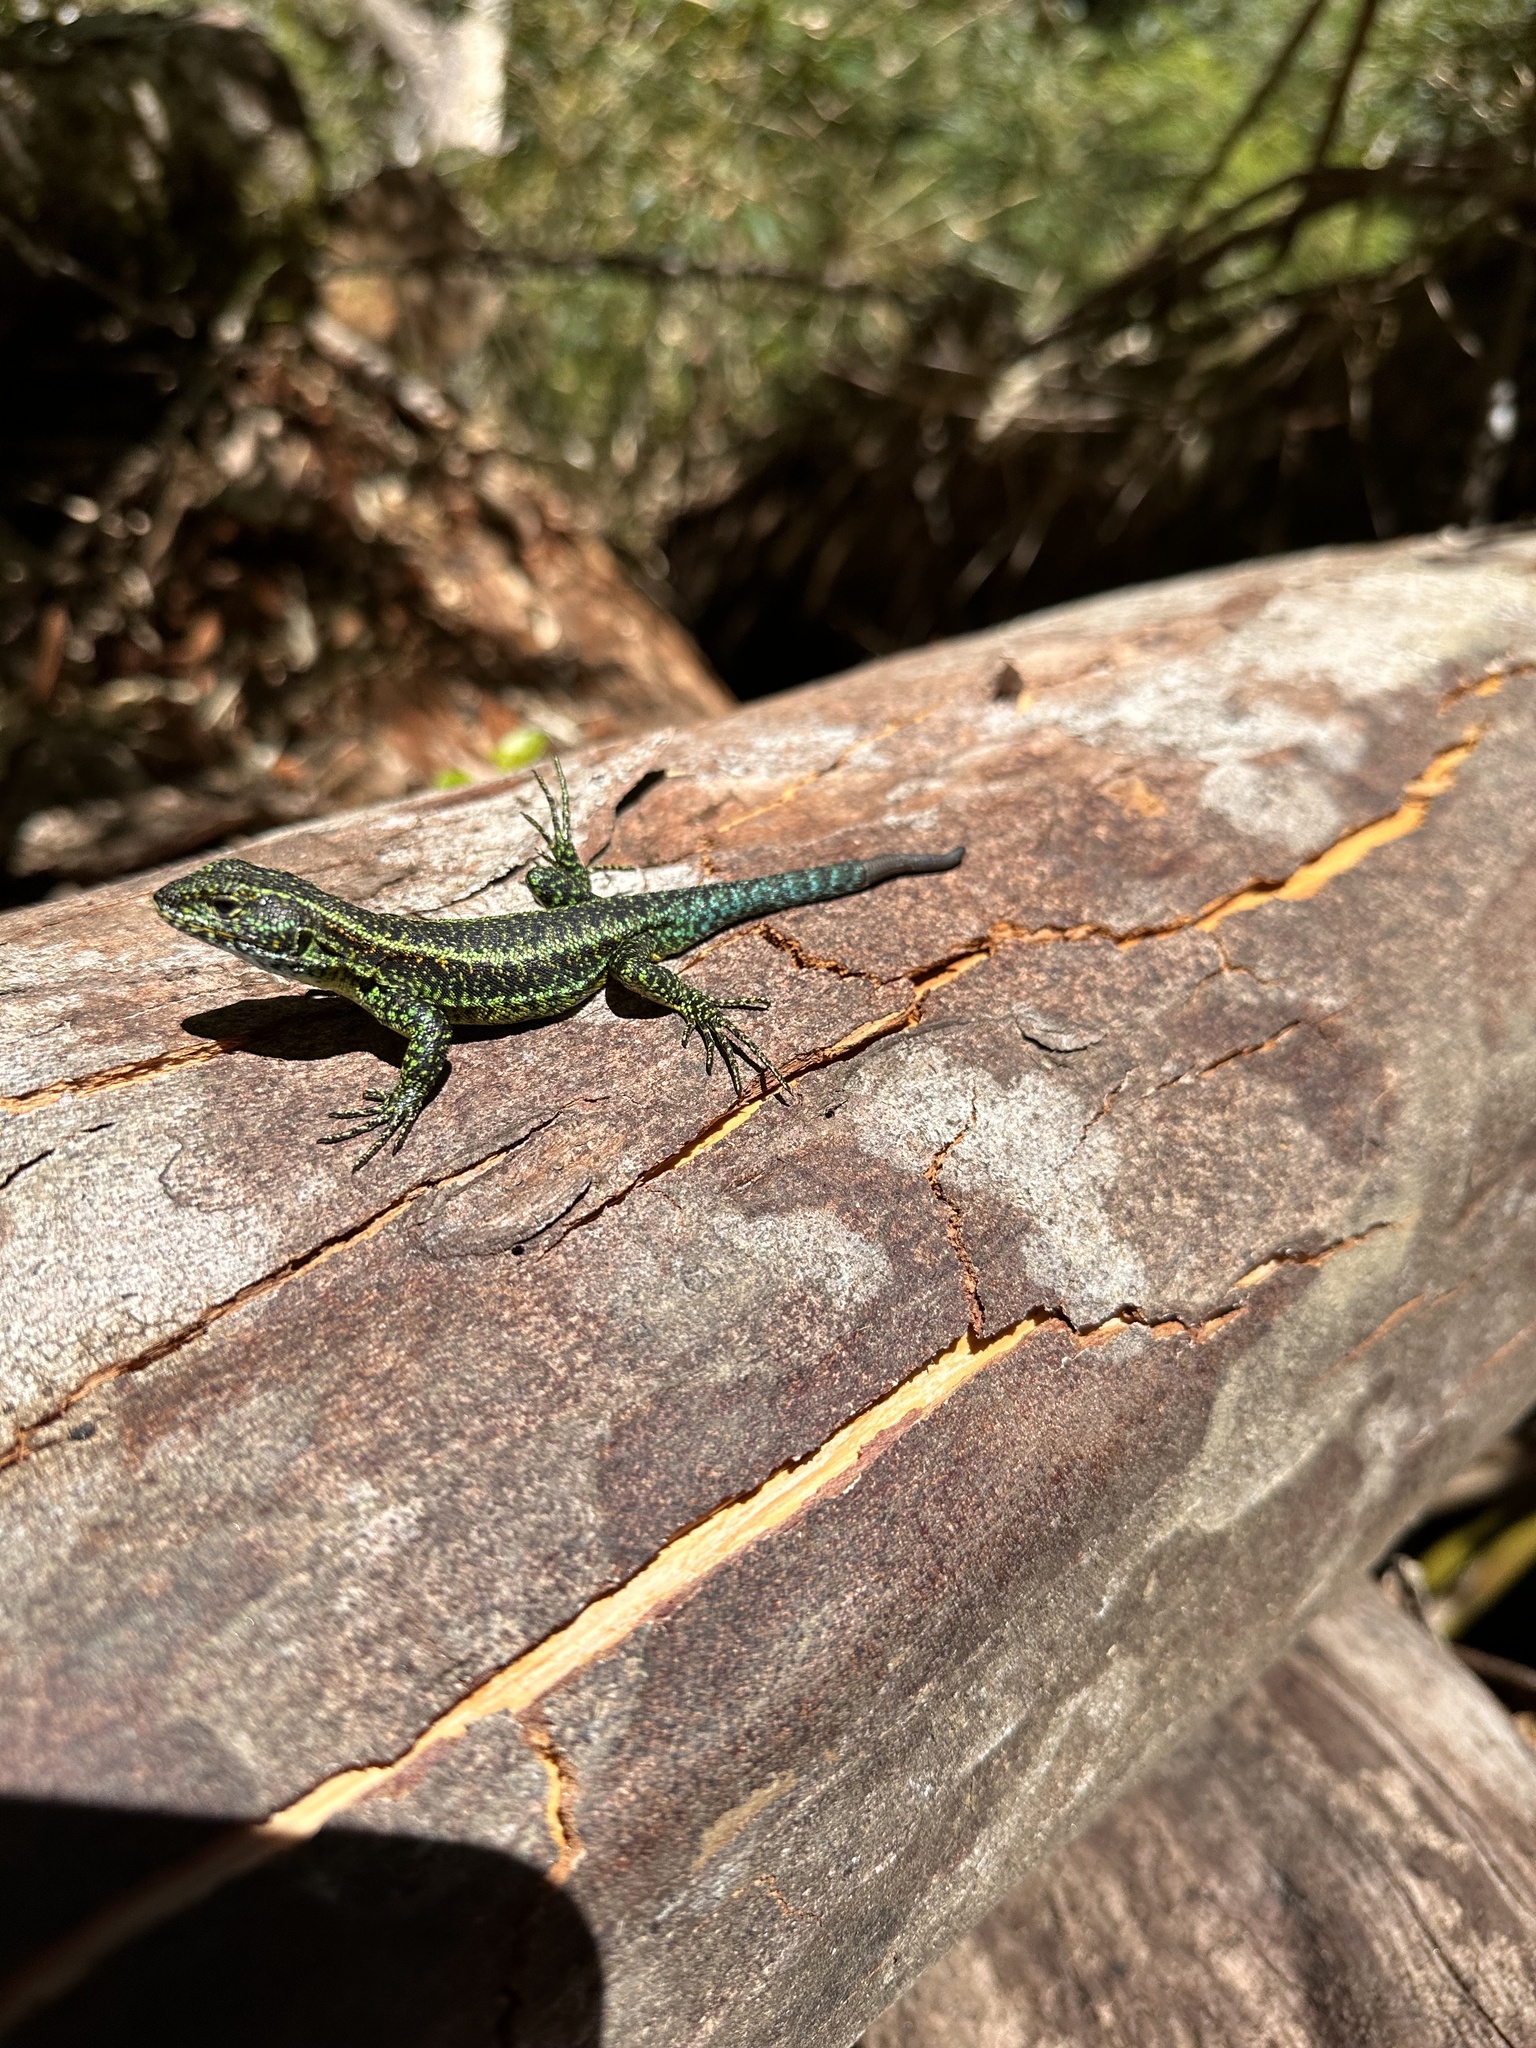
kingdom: Animalia
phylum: Chordata
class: Squamata
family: Liolaemidae
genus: Liolaemus
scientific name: Liolaemus pictus
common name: Painted tree iguana
